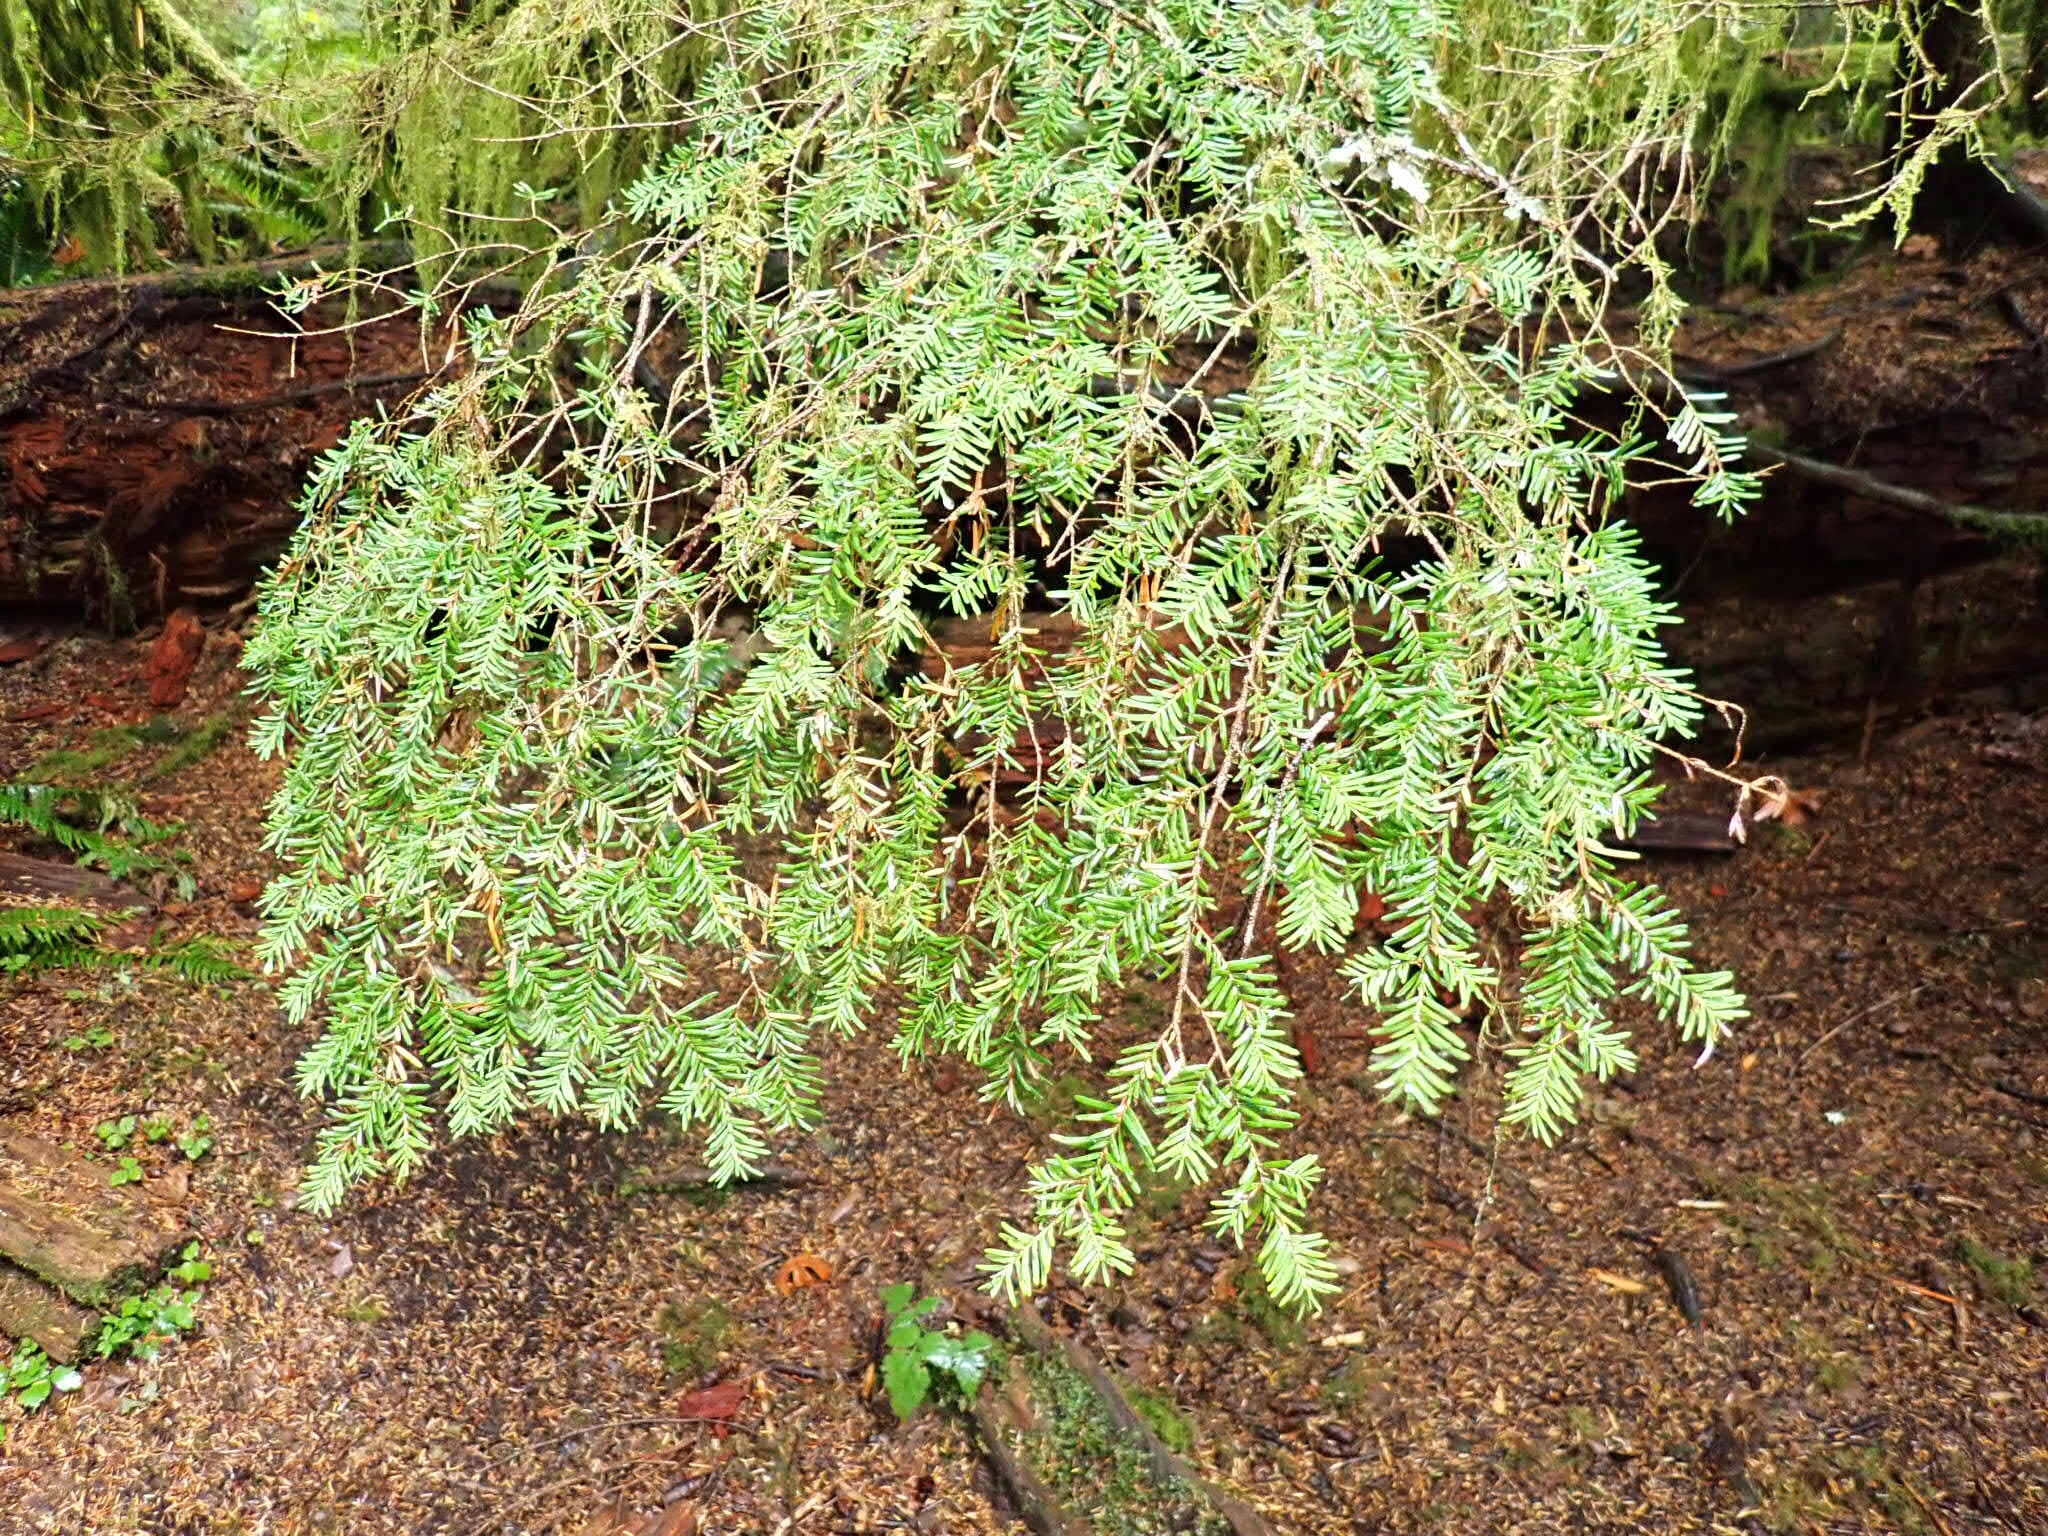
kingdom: Plantae
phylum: Tracheophyta
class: Pinopsida
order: Pinales
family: Pinaceae
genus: Tsuga
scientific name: Tsuga heterophylla
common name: Western hemlock
